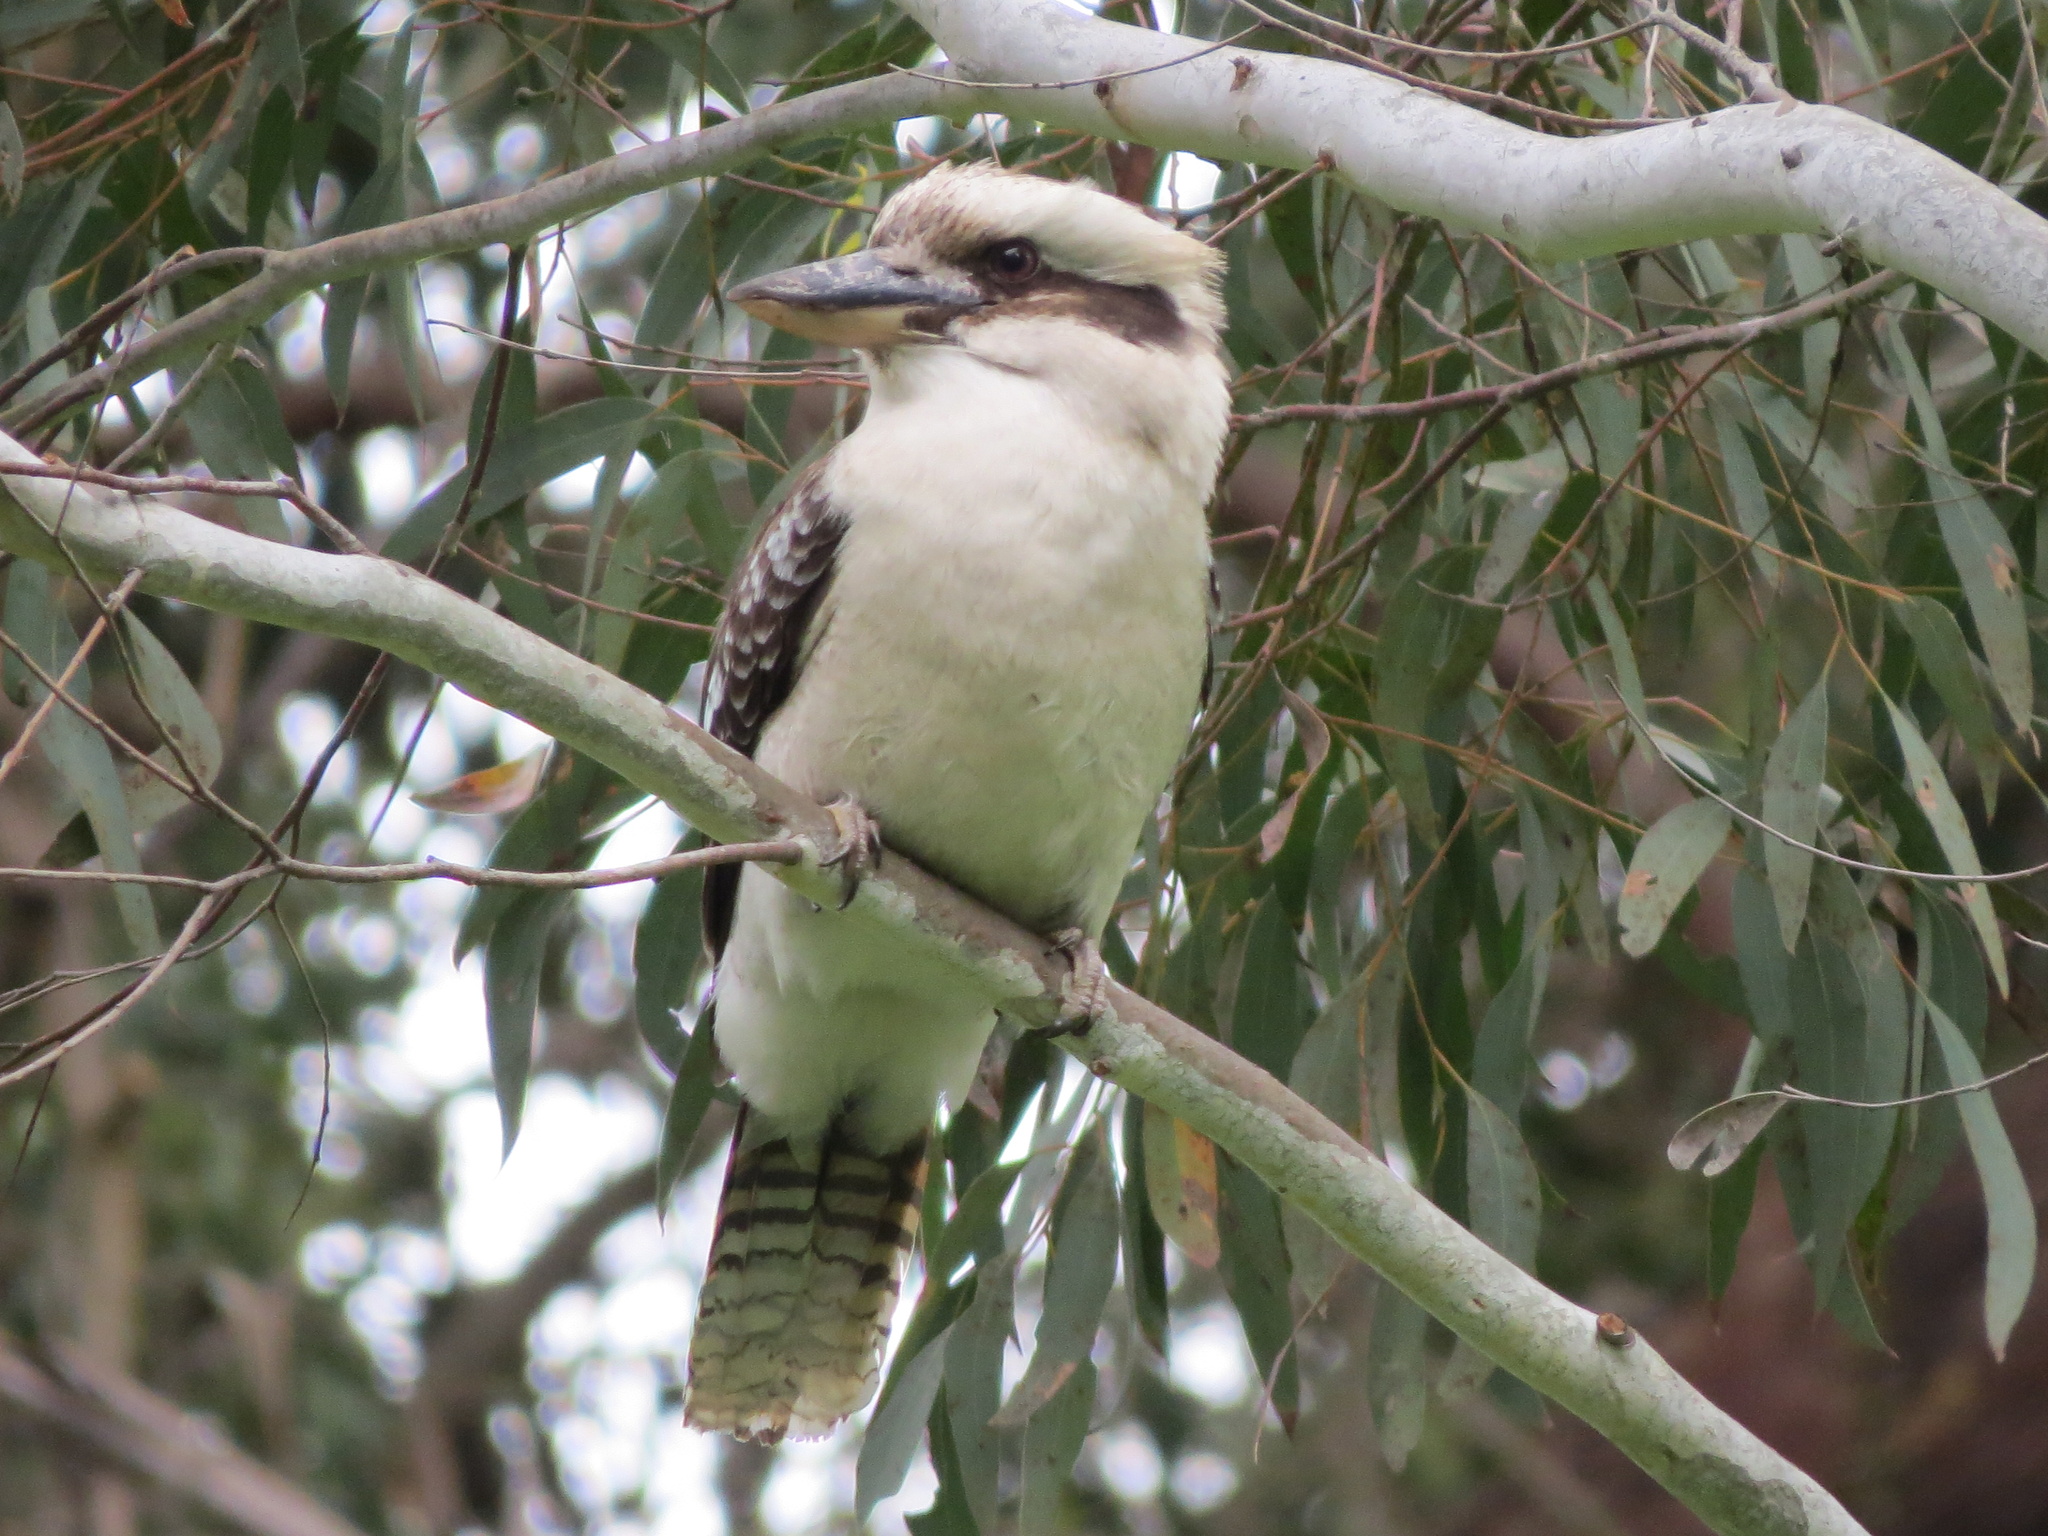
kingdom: Animalia
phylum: Chordata
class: Aves
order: Coraciiformes
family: Alcedinidae
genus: Dacelo
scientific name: Dacelo novaeguineae
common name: Laughing kookaburra
